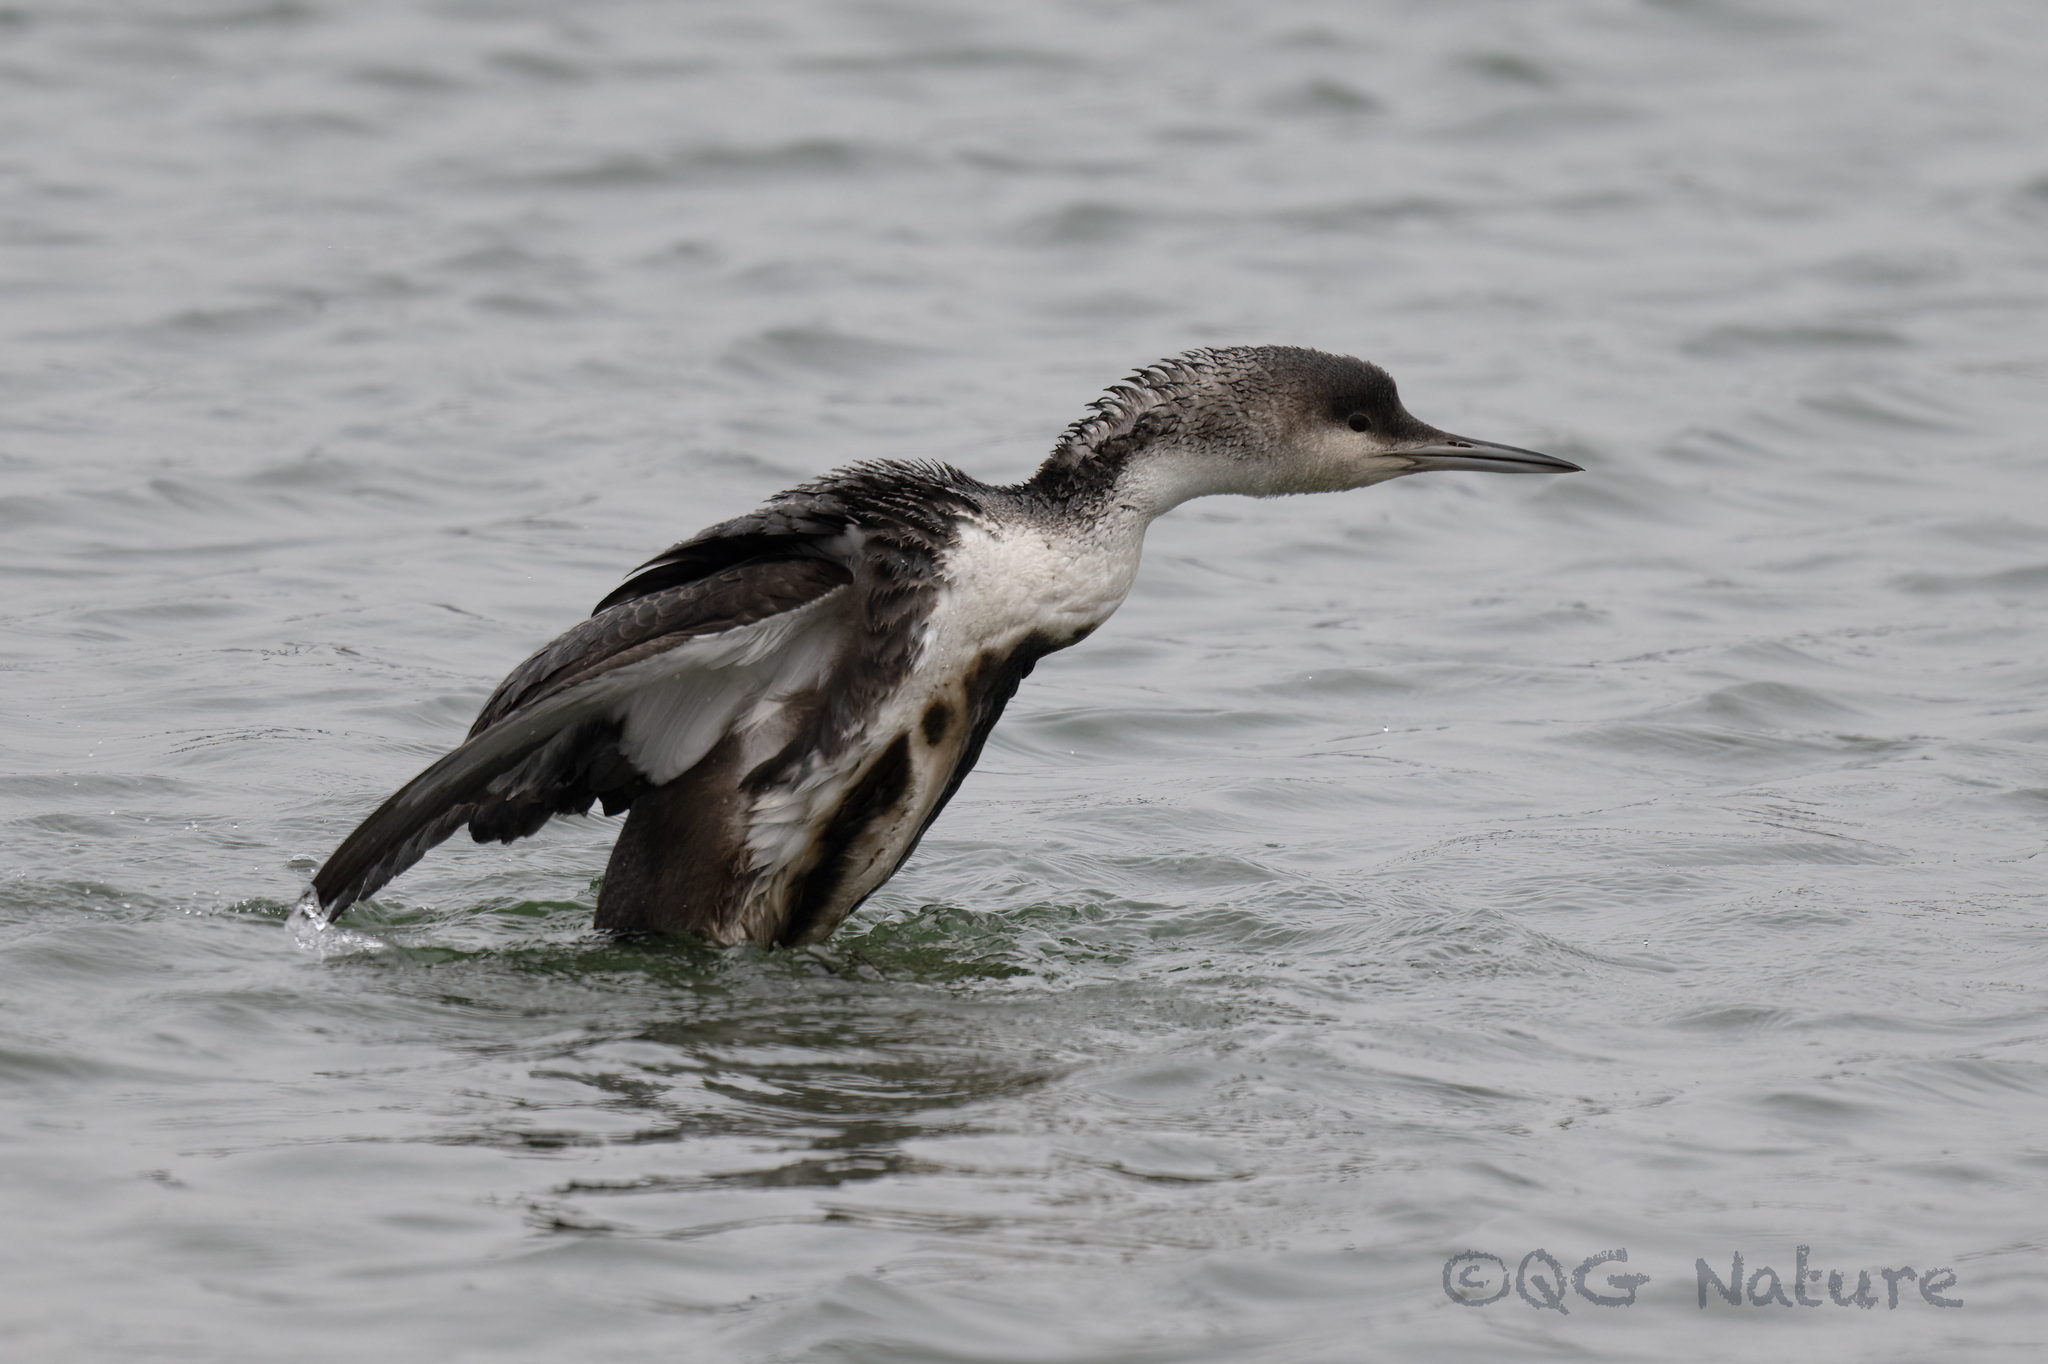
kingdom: Animalia
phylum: Chordata
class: Aves
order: Gaviiformes
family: Gaviidae
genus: Gavia
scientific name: Gavia arctica
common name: Black-throated loon
